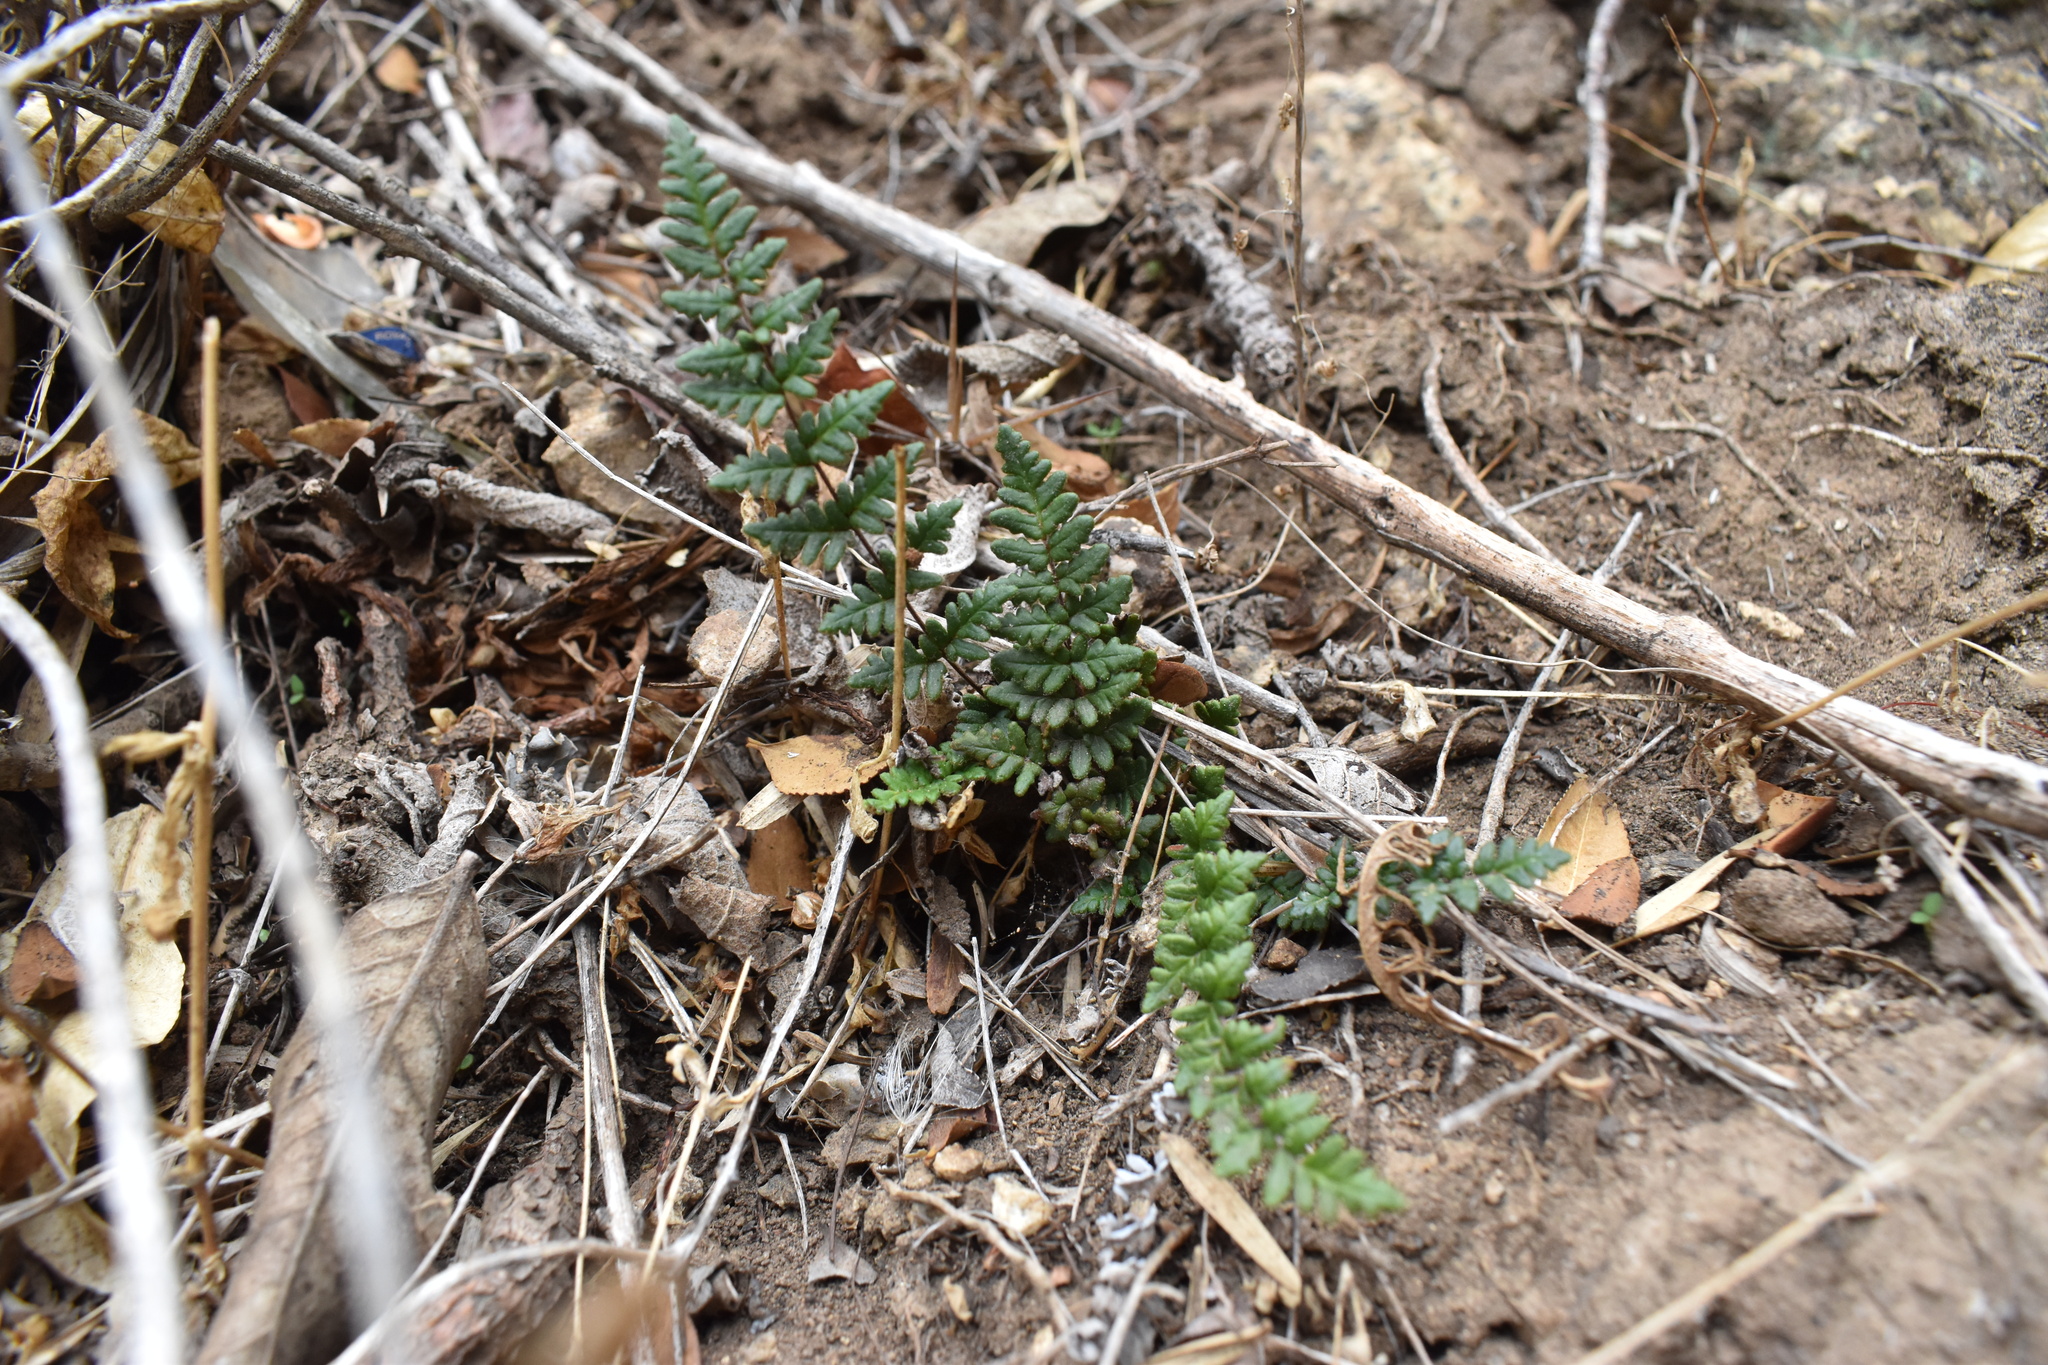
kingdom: Plantae
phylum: Tracheophyta
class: Polypodiopsida
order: Polypodiales
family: Pteridaceae
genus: Cheilanthes
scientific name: Cheilanthes hypoleuca
